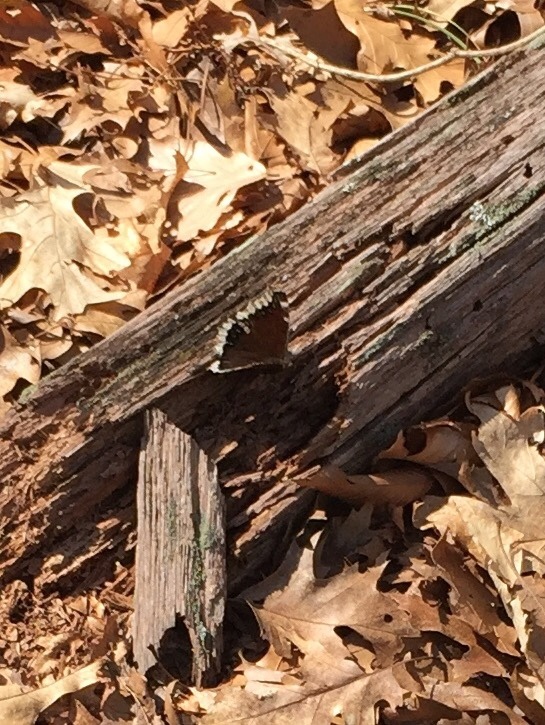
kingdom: Animalia
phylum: Arthropoda
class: Insecta
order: Lepidoptera
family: Nymphalidae
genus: Nymphalis
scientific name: Nymphalis antiopa
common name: Camberwell beauty
